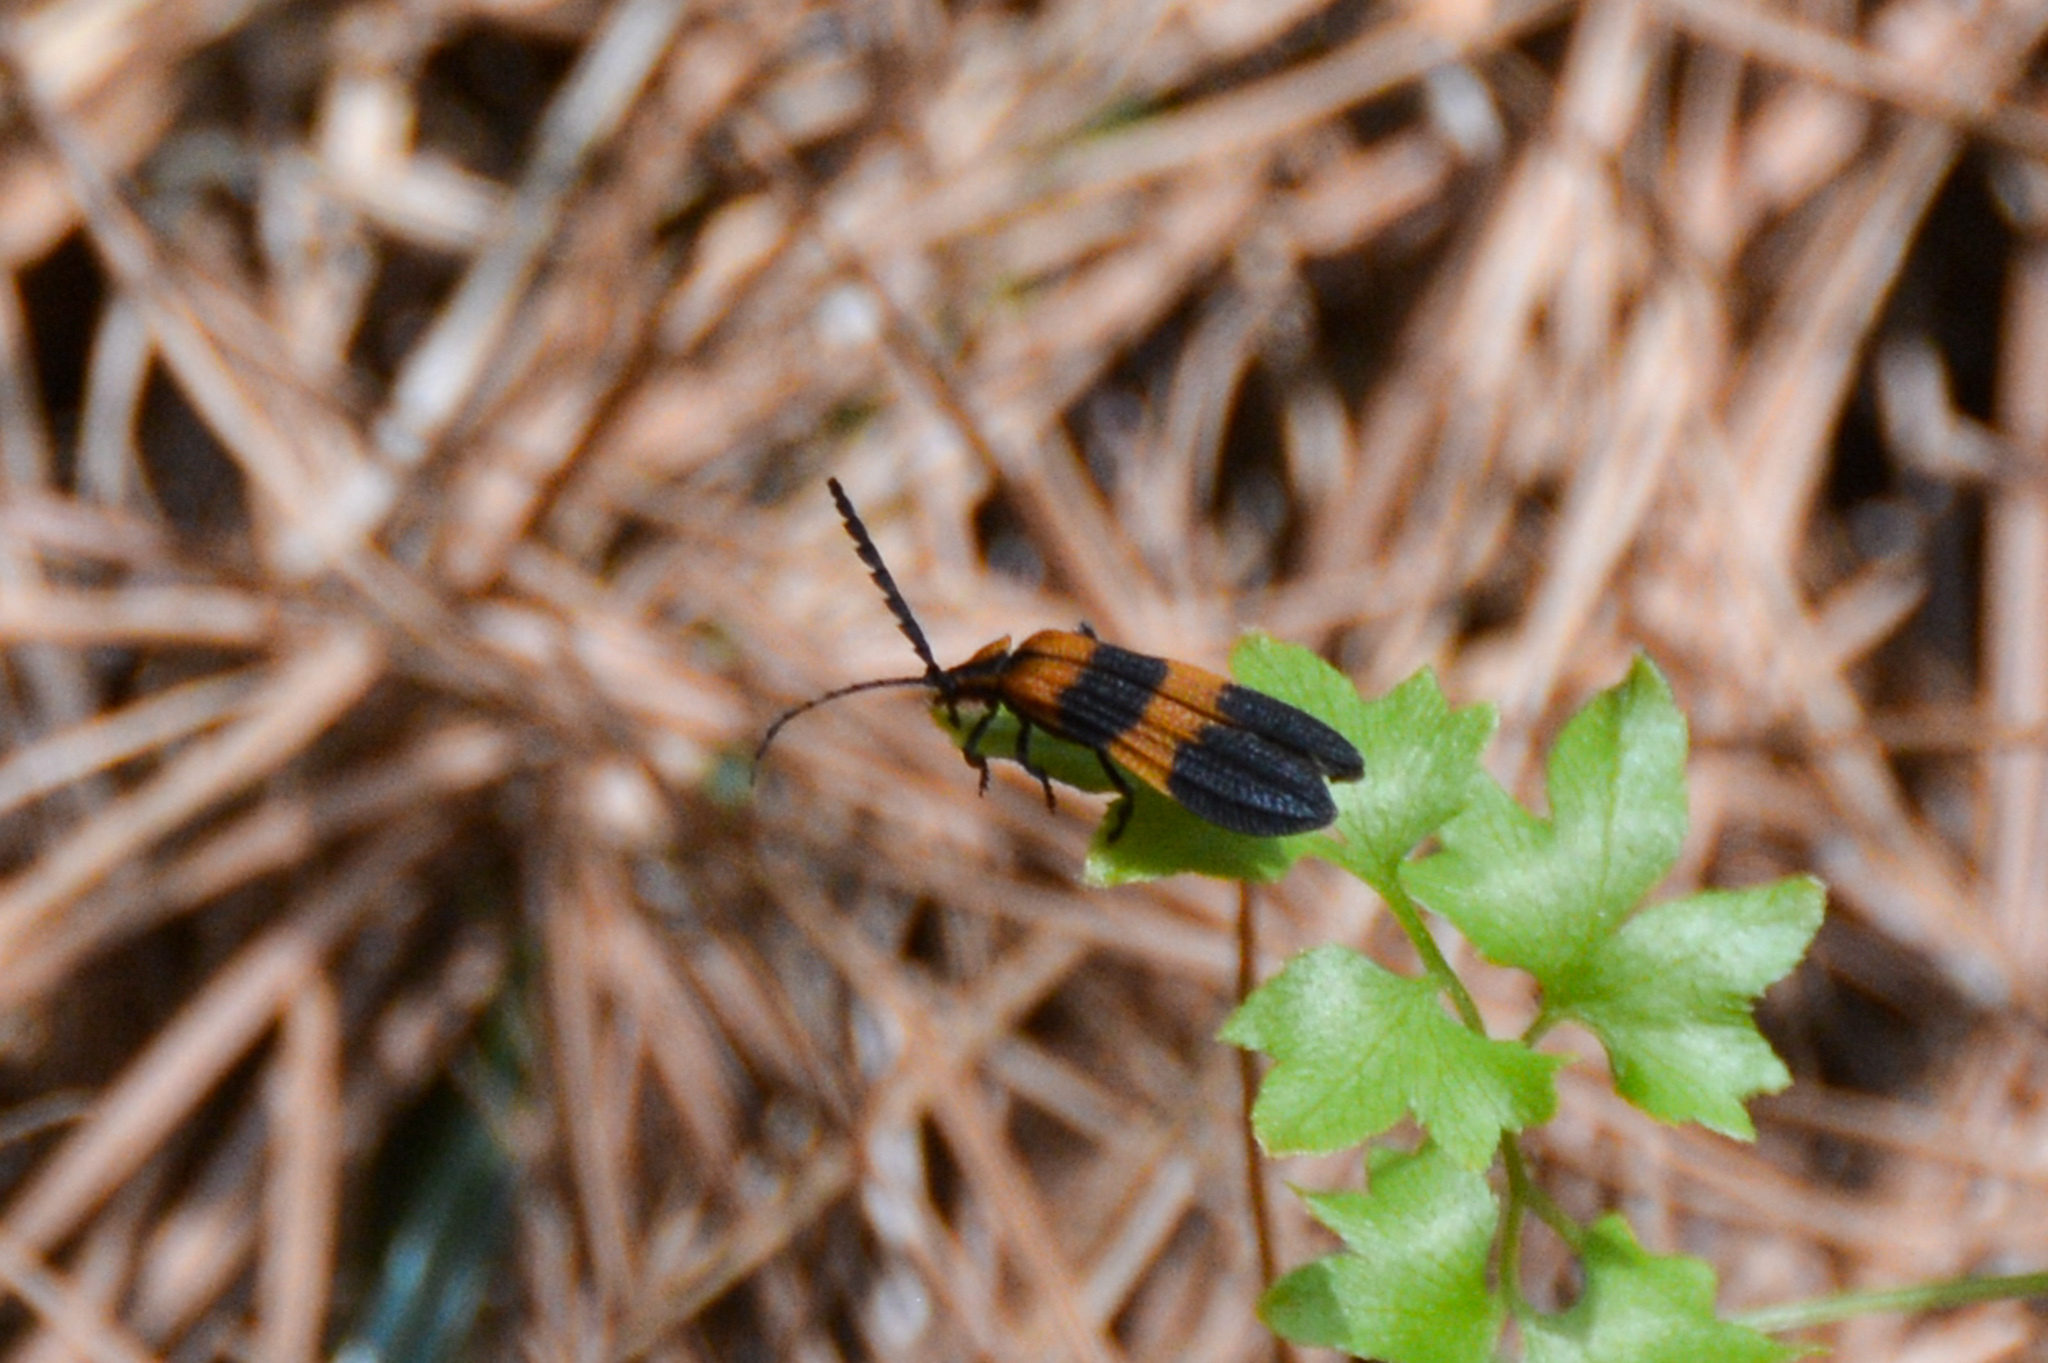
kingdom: Animalia
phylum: Arthropoda
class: Insecta
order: Coleoptera
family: Lycidae
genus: Calopteron
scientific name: Calopteron discrepans
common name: Banded net-winged beetle
